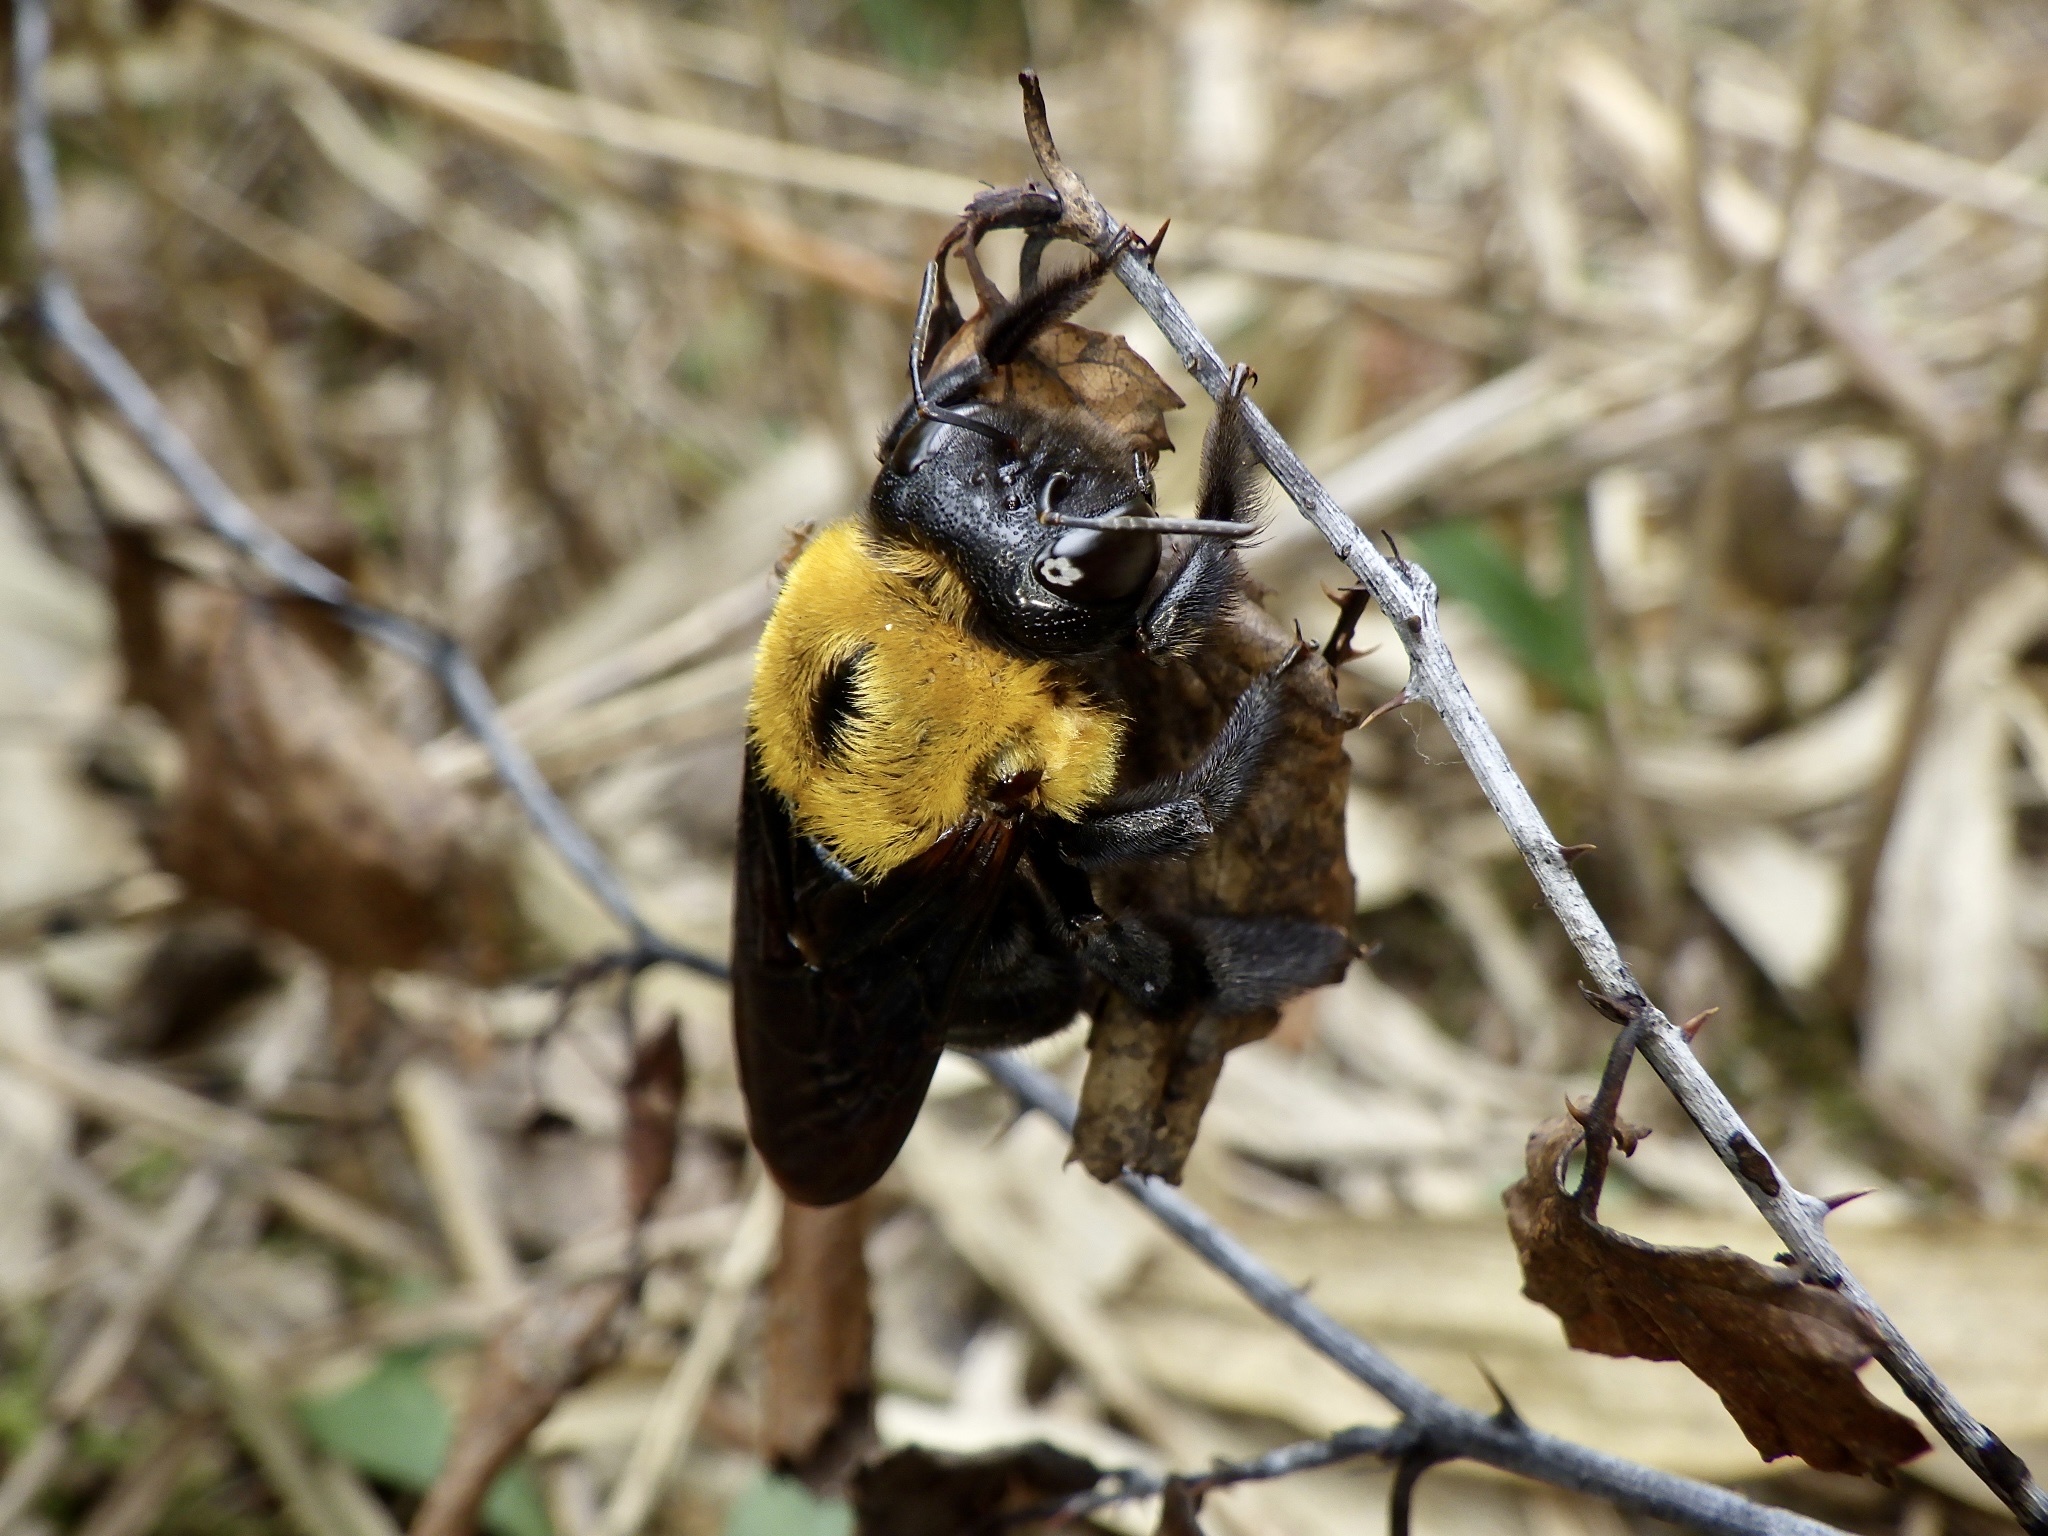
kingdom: Animalia
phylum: Arthropoda
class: Insecta
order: Hymenoptera
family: Apidae
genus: Xylocopa
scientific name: Xylocopa appendiculata
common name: Japanese carpenter bee
